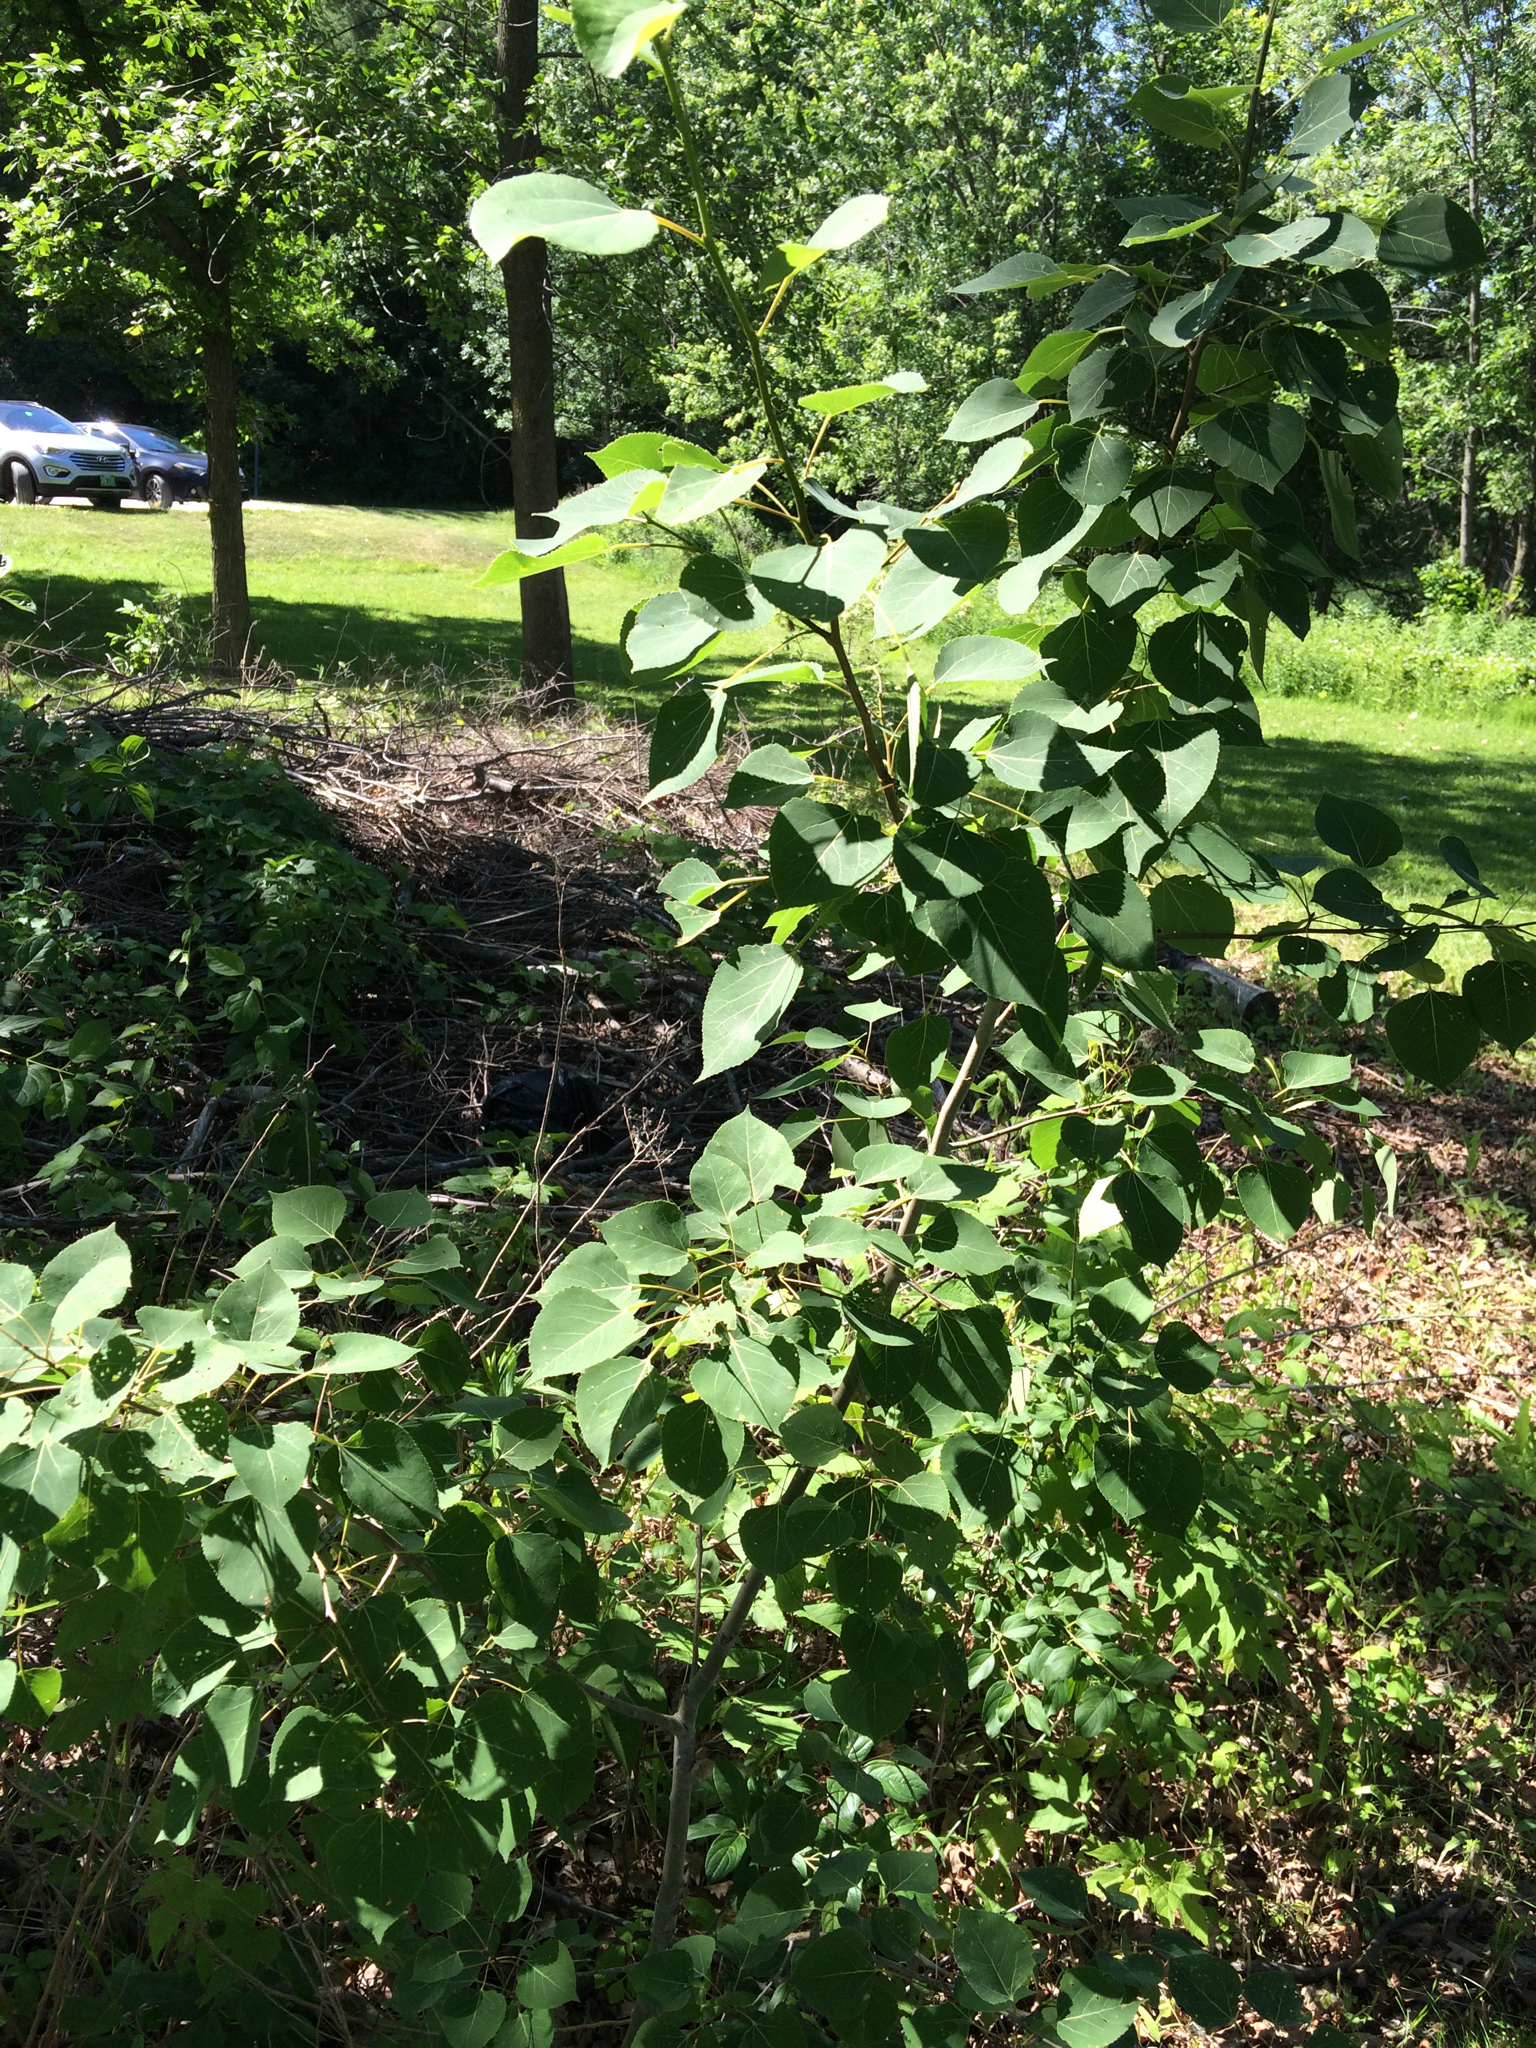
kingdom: Plantae
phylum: Tracheophyta
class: Magnoliopsida
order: Malpighiales
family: Salicaceae
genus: Populus
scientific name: Populus tremuloides
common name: Quaking aspen
